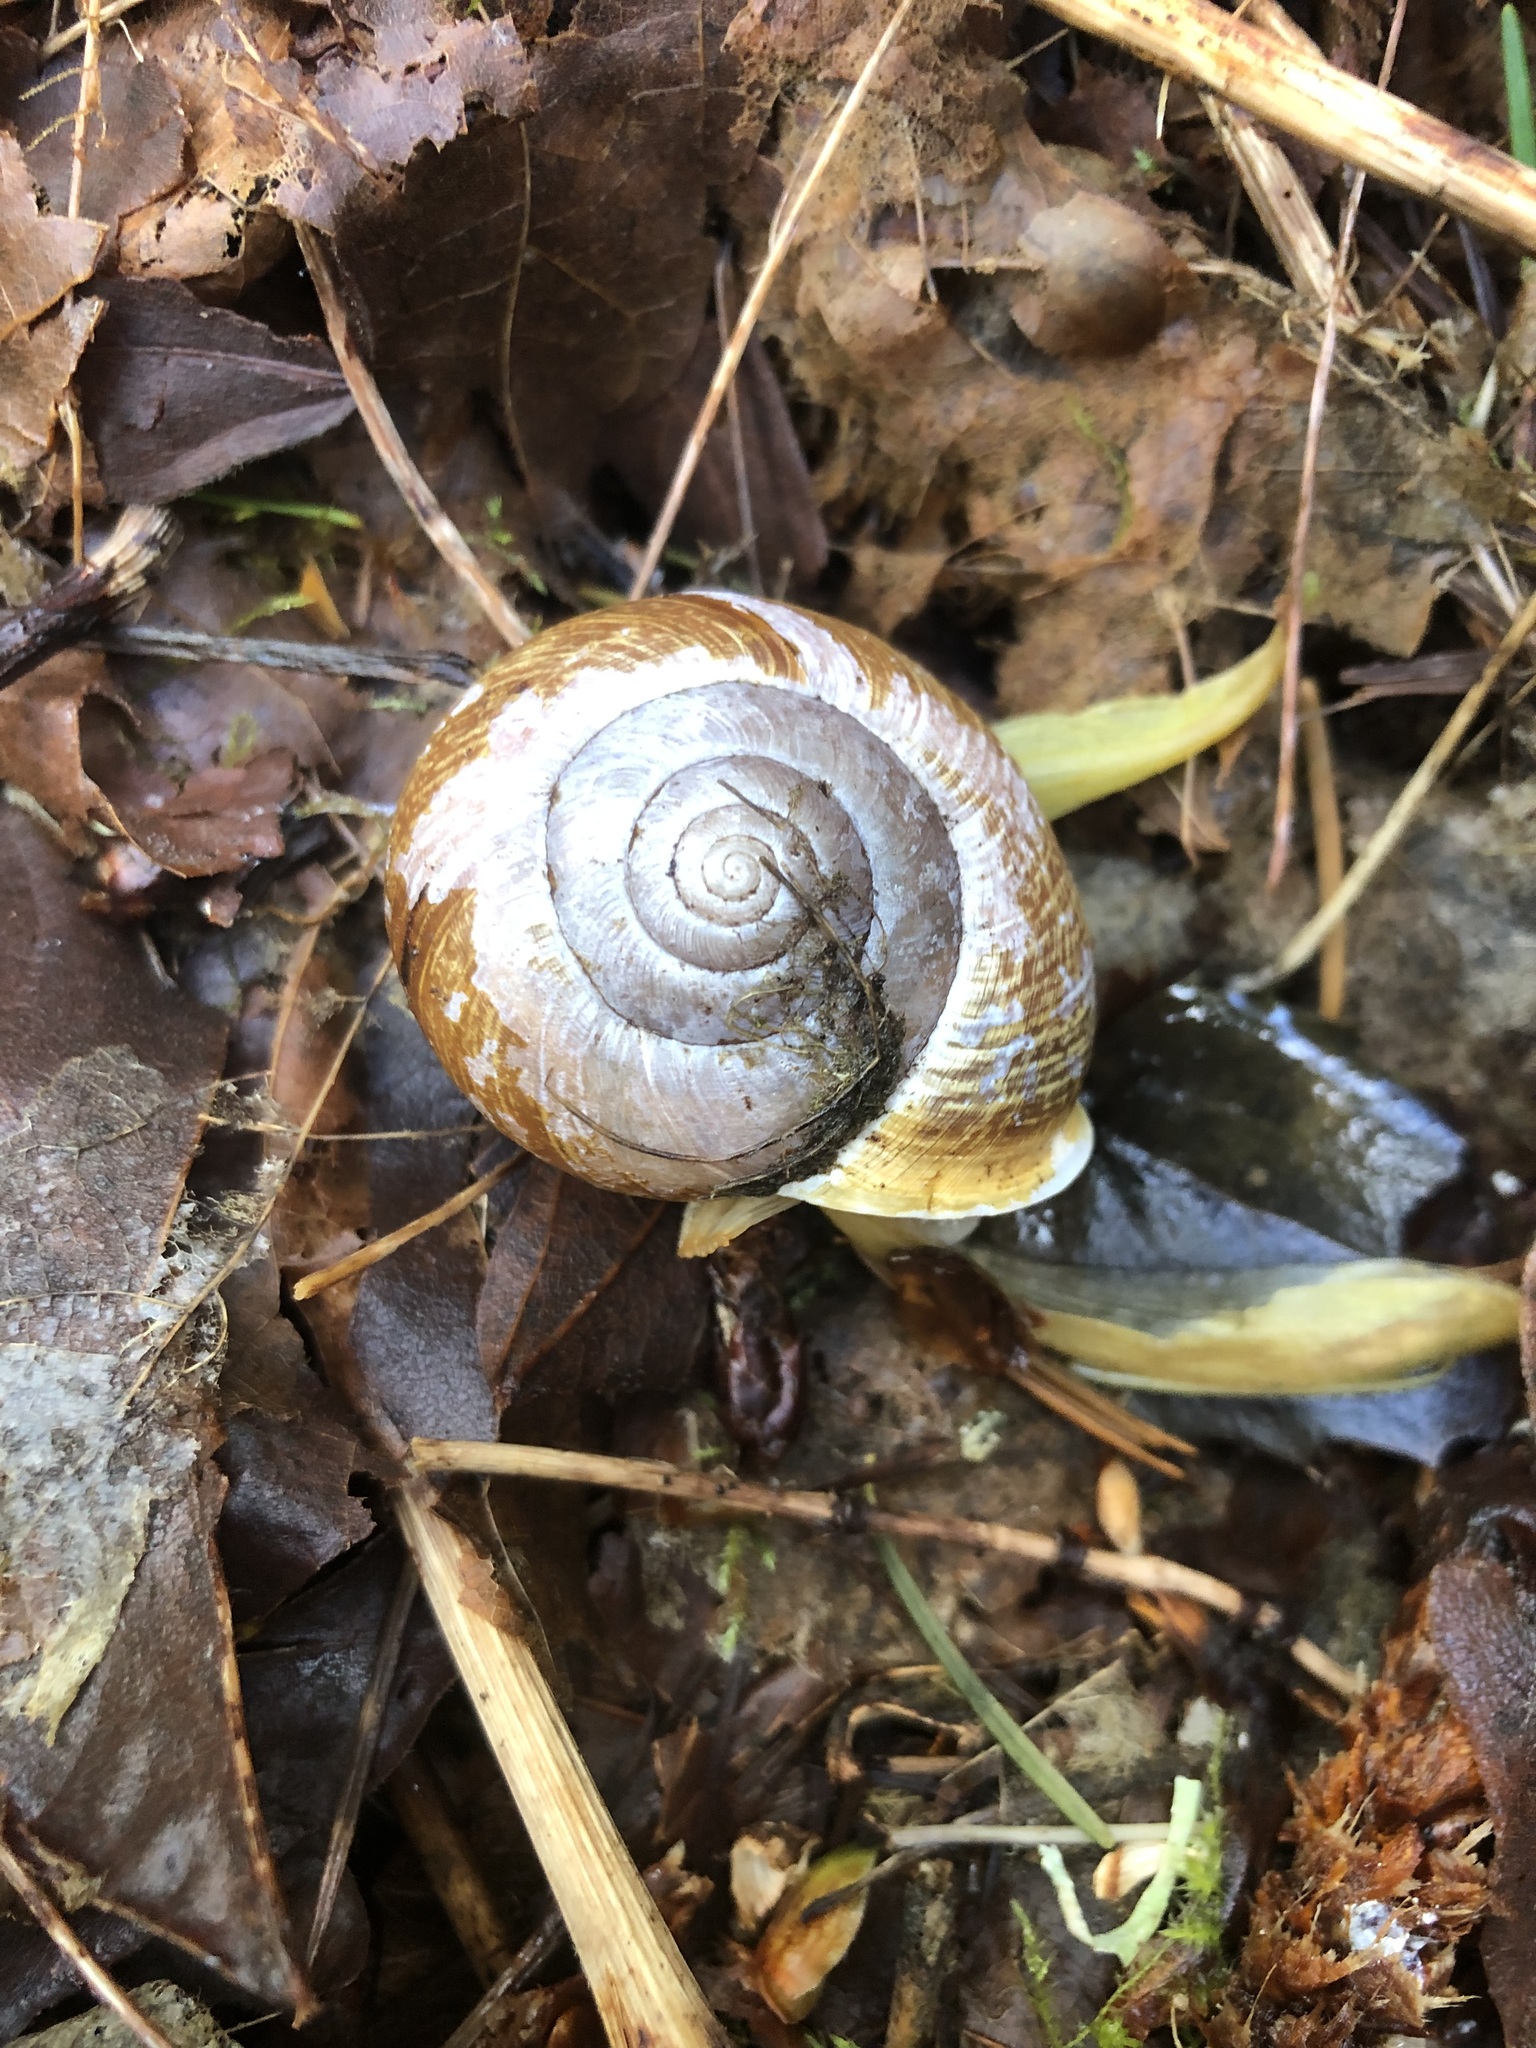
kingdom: Animalia
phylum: Mollusca
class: Gastropoda
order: Stylommatophora
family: Polygyridae
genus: Allogona
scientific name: Allogona townsendiana
